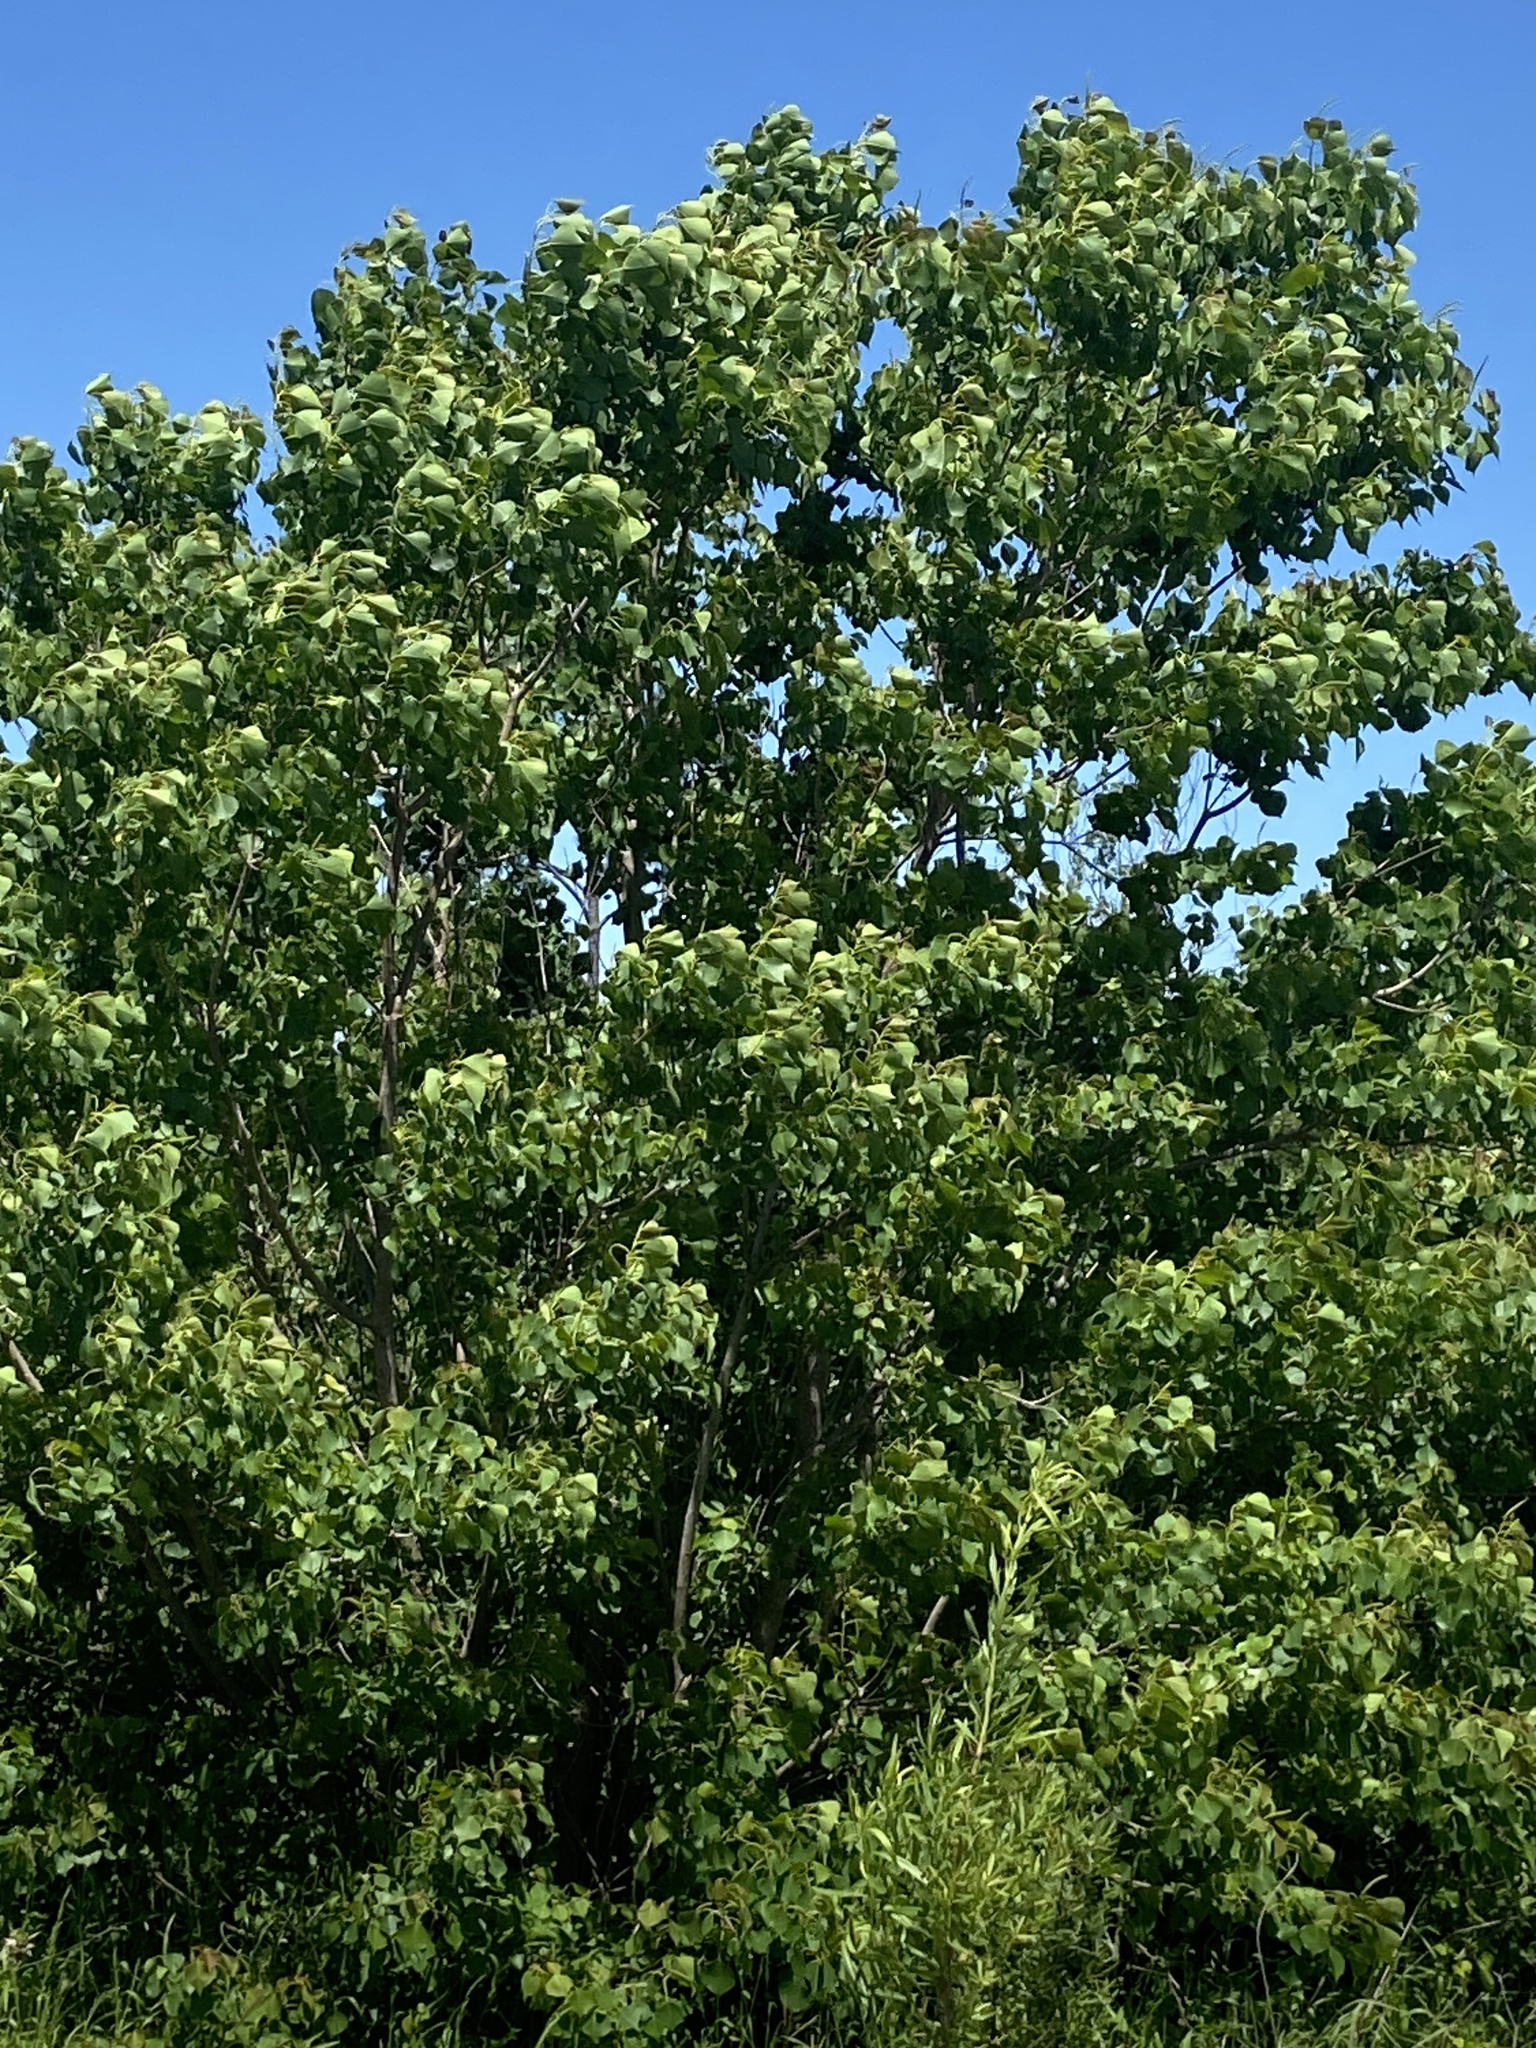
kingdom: Plantae
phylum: Tracheophyta
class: Magnoliopsida
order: Malpighiales
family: Euphorbiaceae
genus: Triadica
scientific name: Triadica sebifera
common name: Chinese tallow
